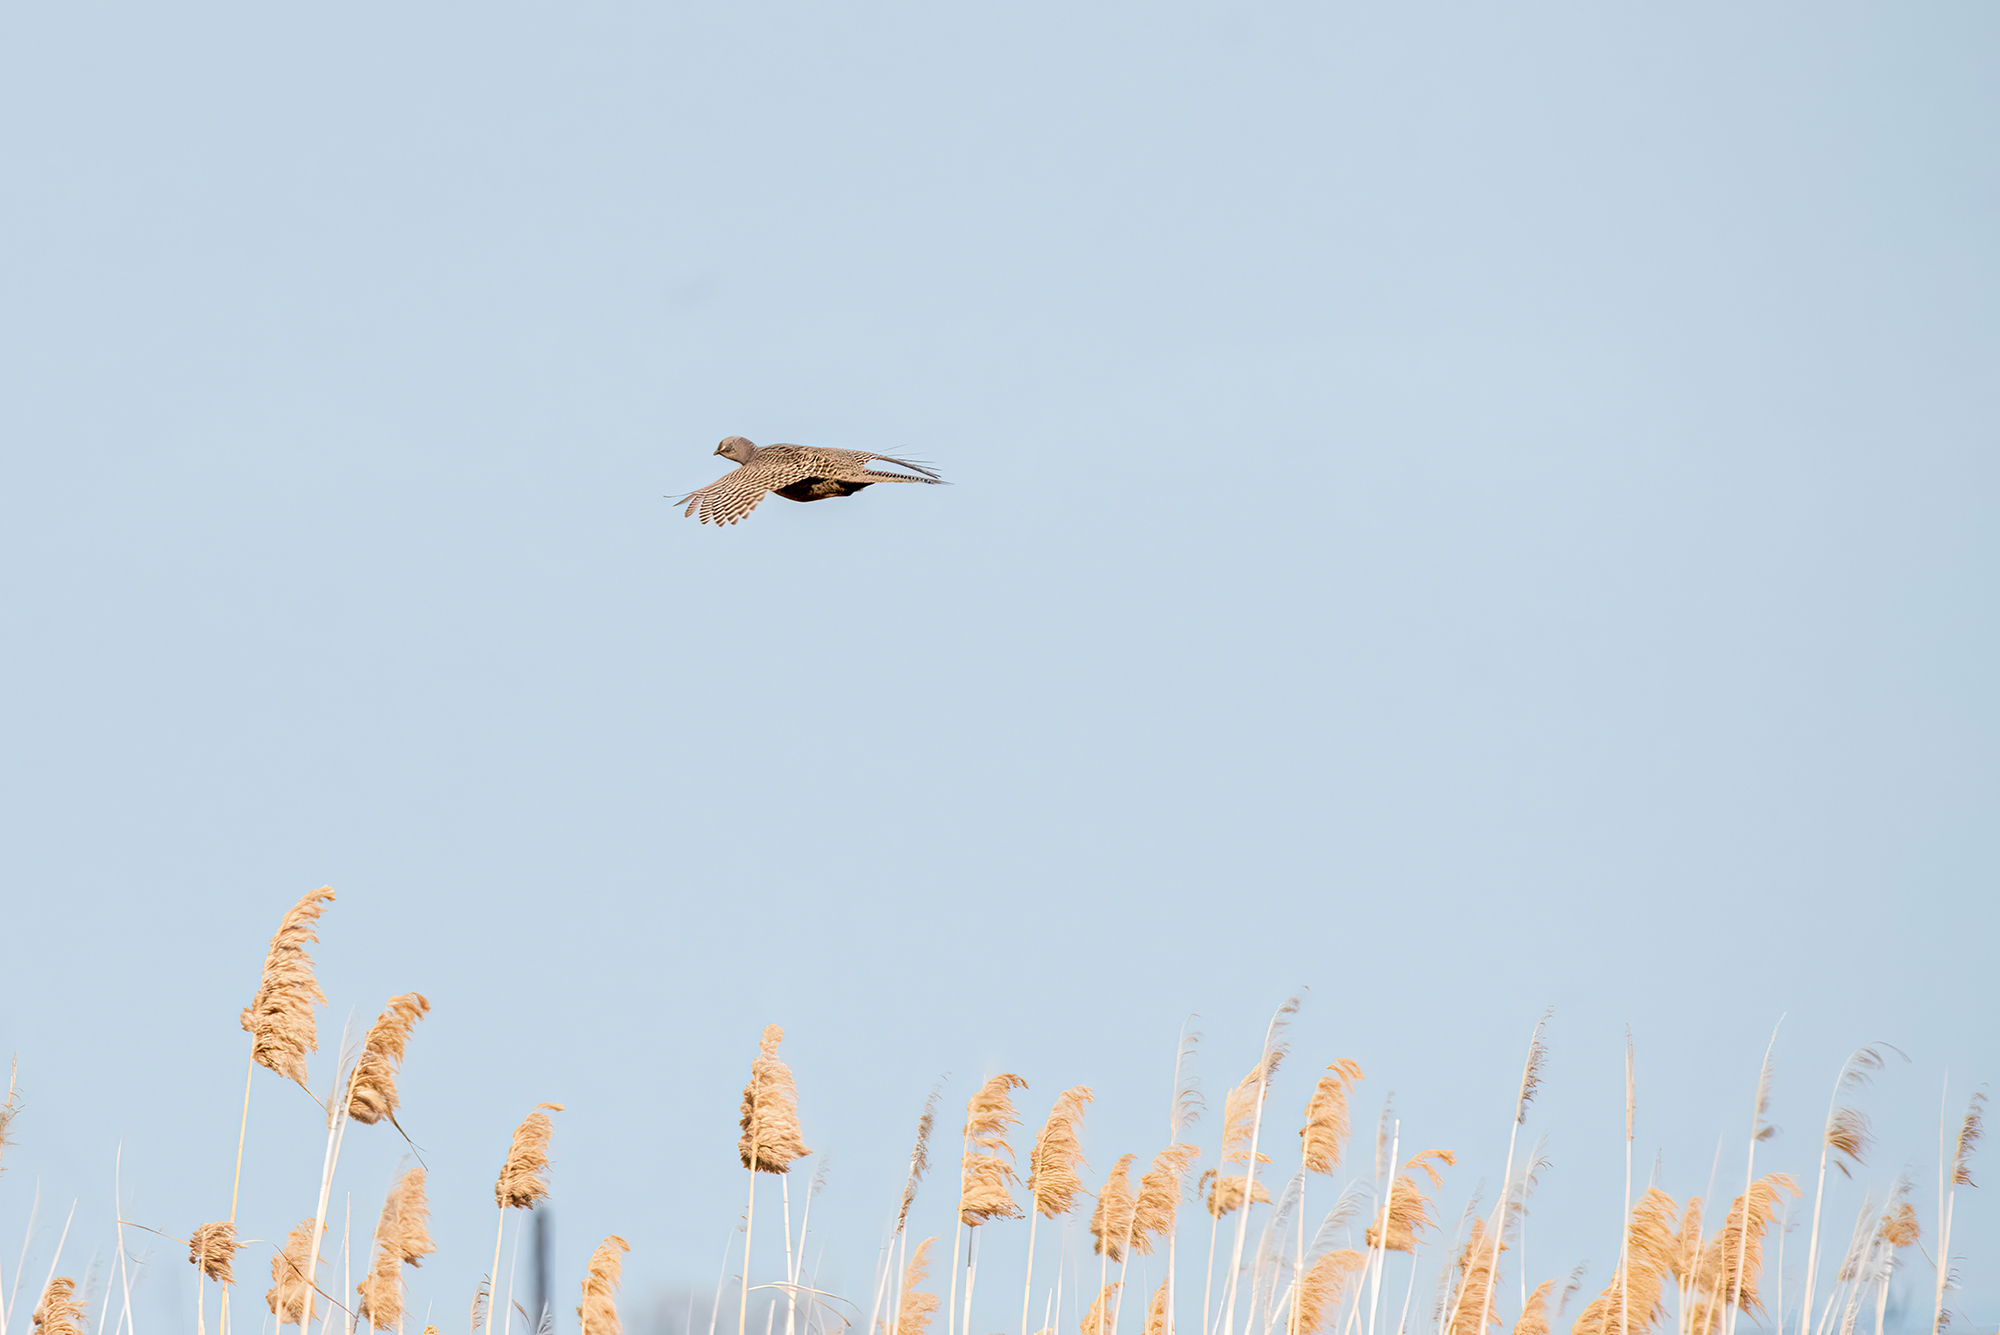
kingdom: Animalia
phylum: Chordata
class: Aves
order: Galliformes
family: Phasianidae
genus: Phasianus
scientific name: Phasianus colchicus
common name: Common pheasant
